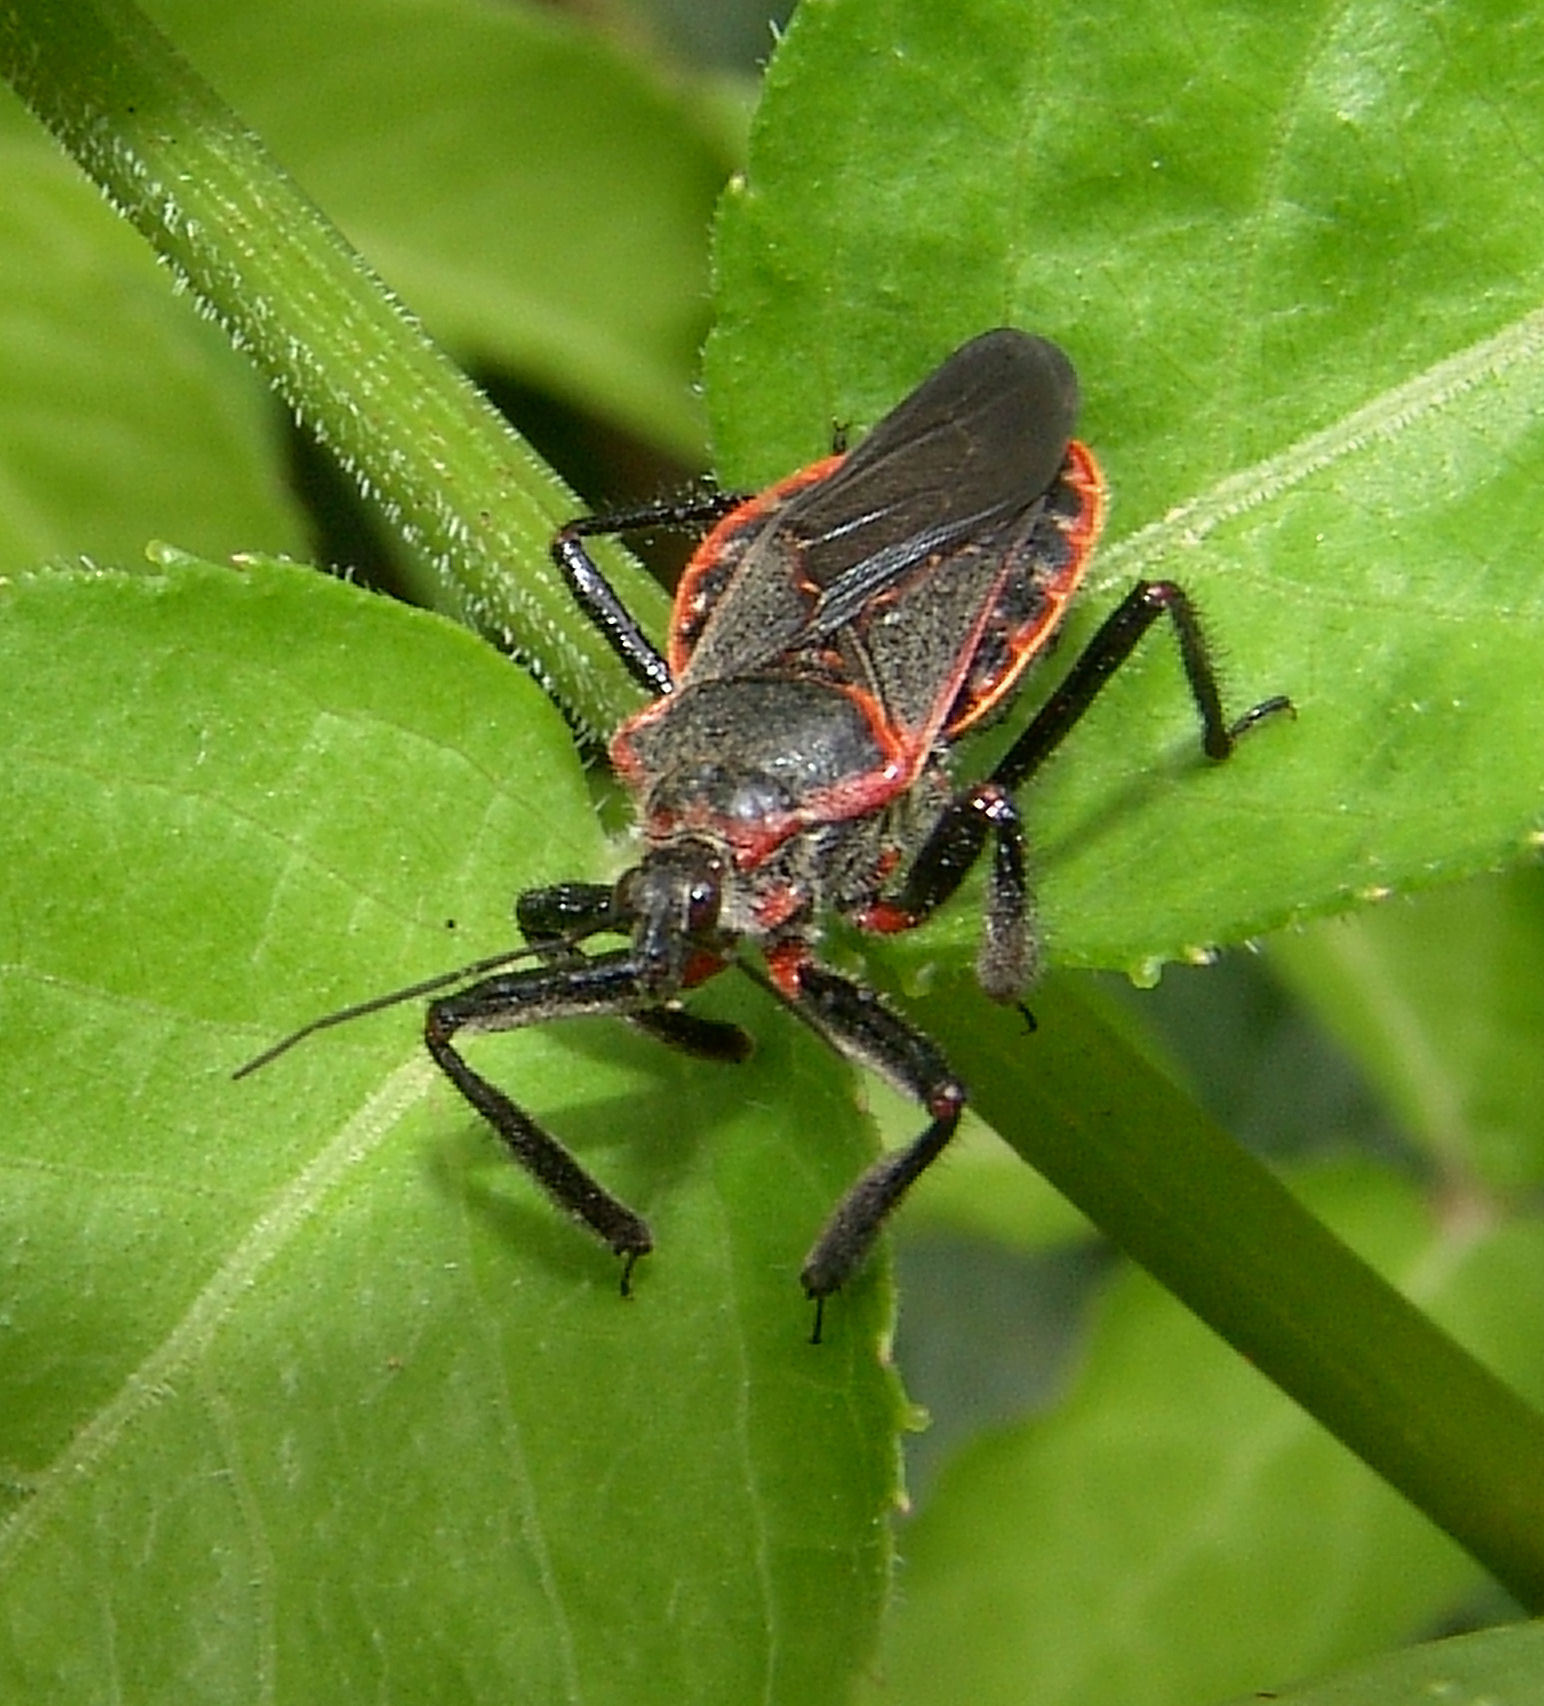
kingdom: Animalia
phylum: Arthropoda
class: Insecta
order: Hemiptera
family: Reduviidae
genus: Apiomerus
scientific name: Apiomerus crassipes
